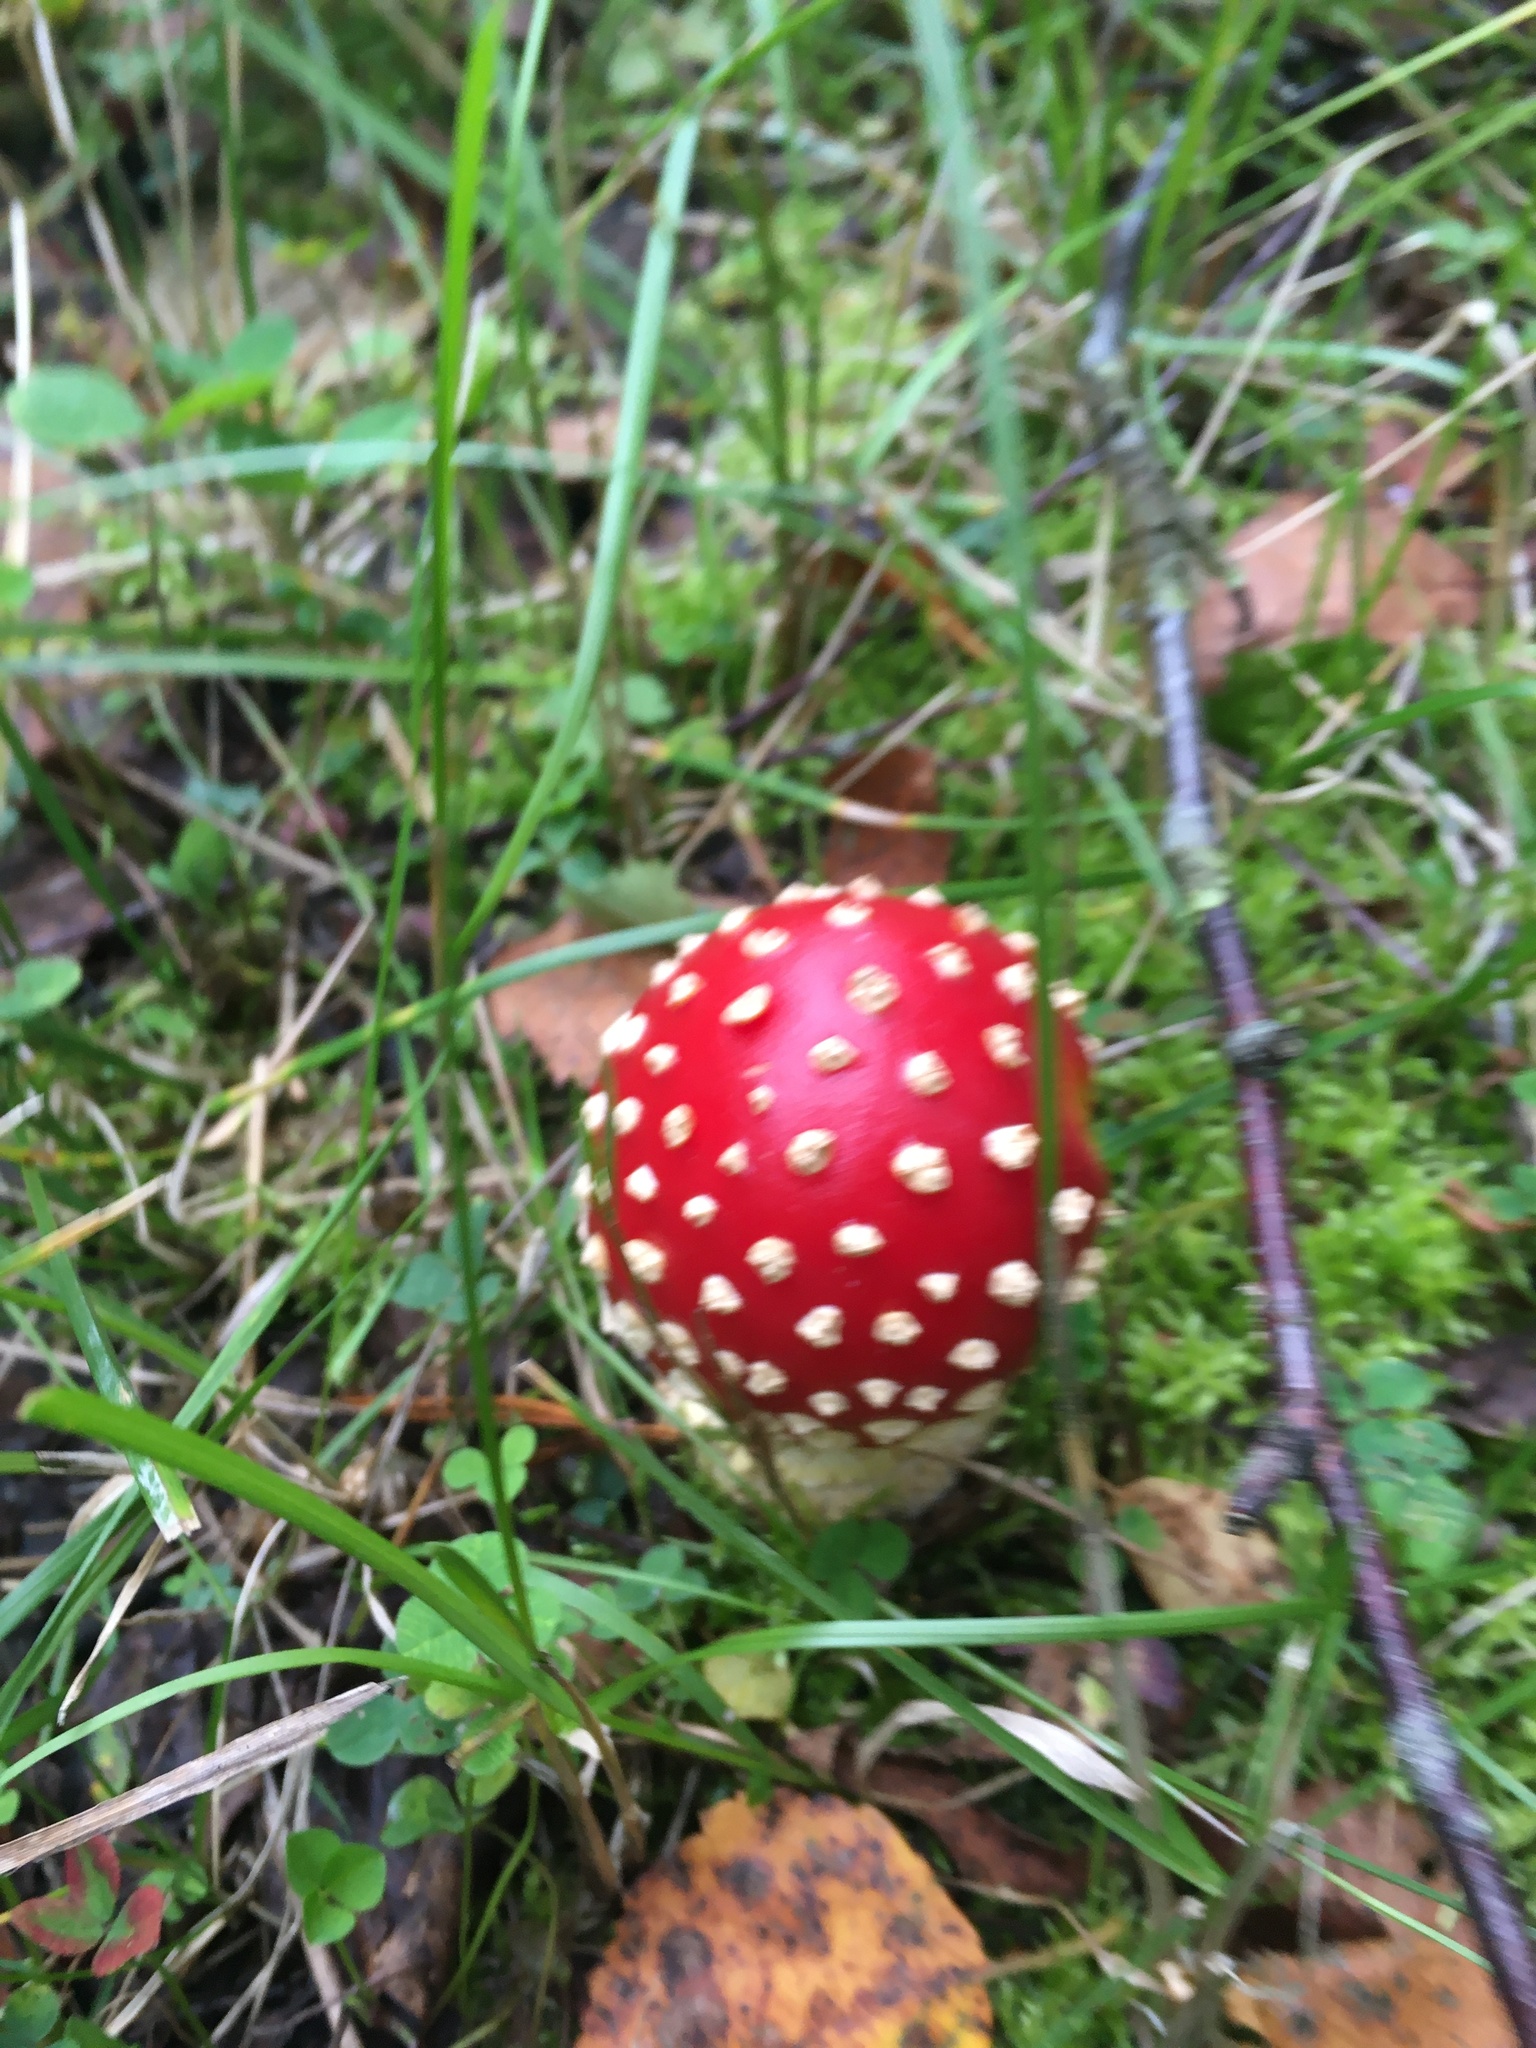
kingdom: Fungi
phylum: Basidiomycota
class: Agaricomycetes
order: Agaricales
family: Amanitaceae
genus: Amanita
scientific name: Amanita muscaria
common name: Fly agaric
